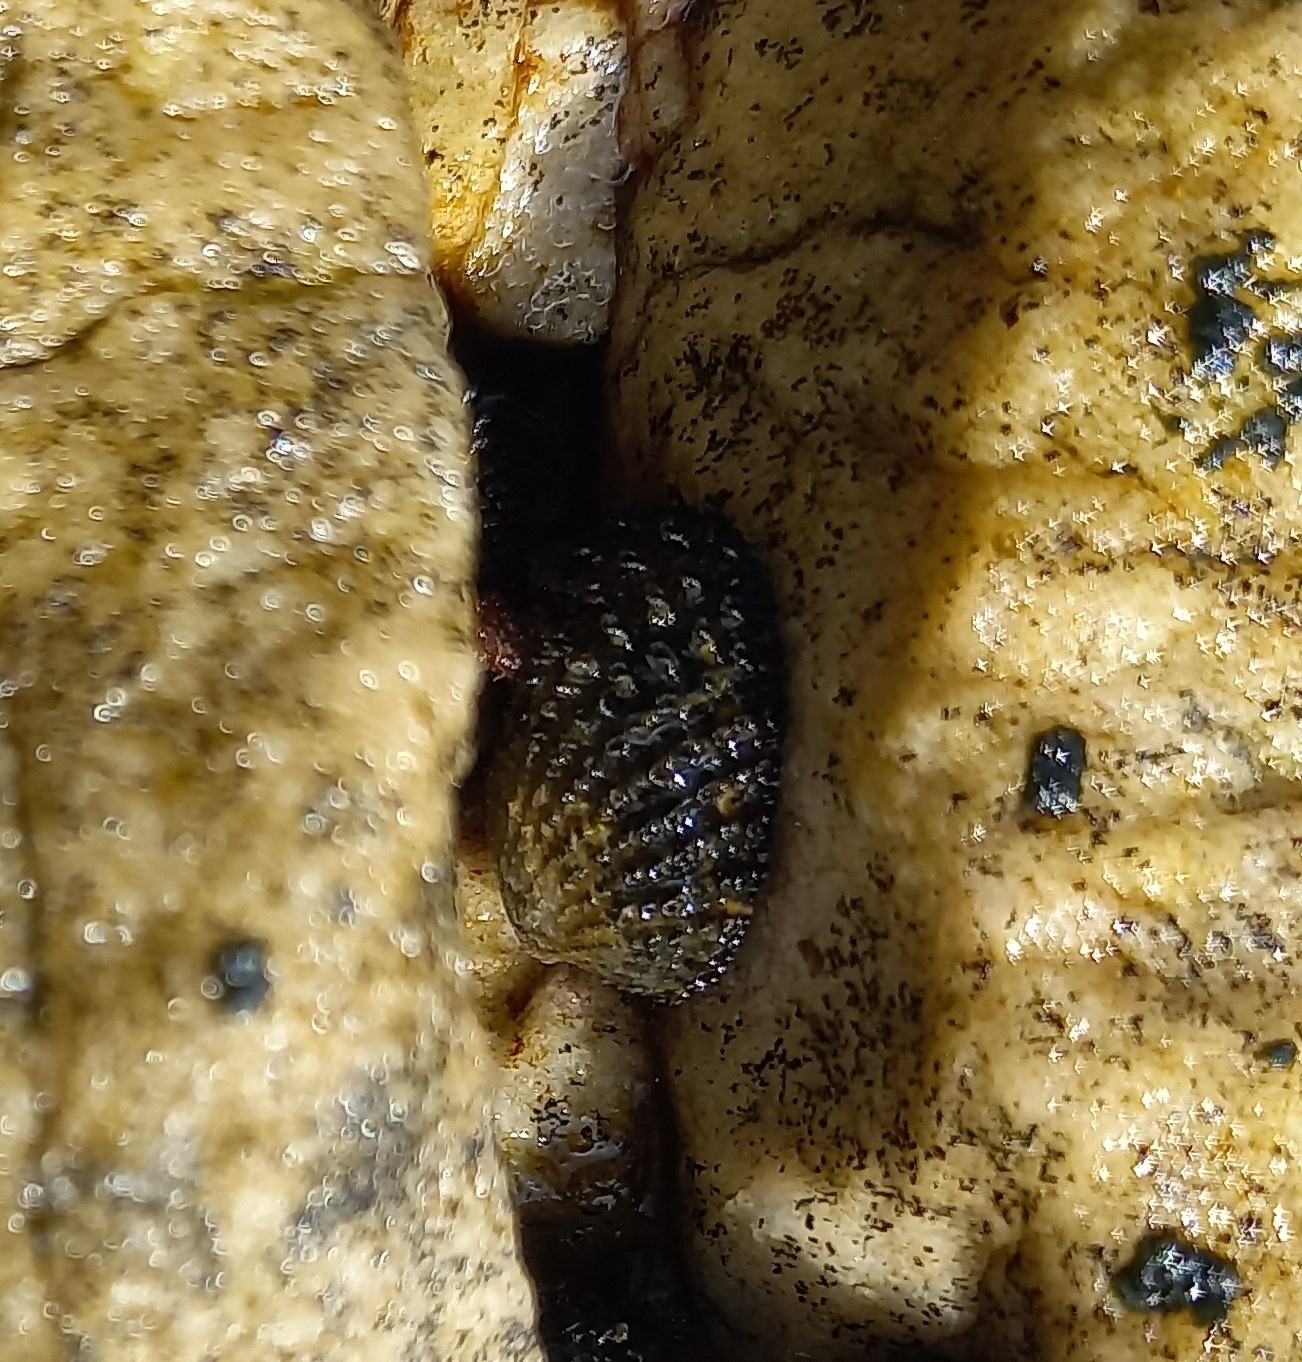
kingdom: Animalia
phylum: Mollusca
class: Gastropoda
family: Patellidae
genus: Helcion
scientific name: Helcion pectunculus
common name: Prickly limpet
